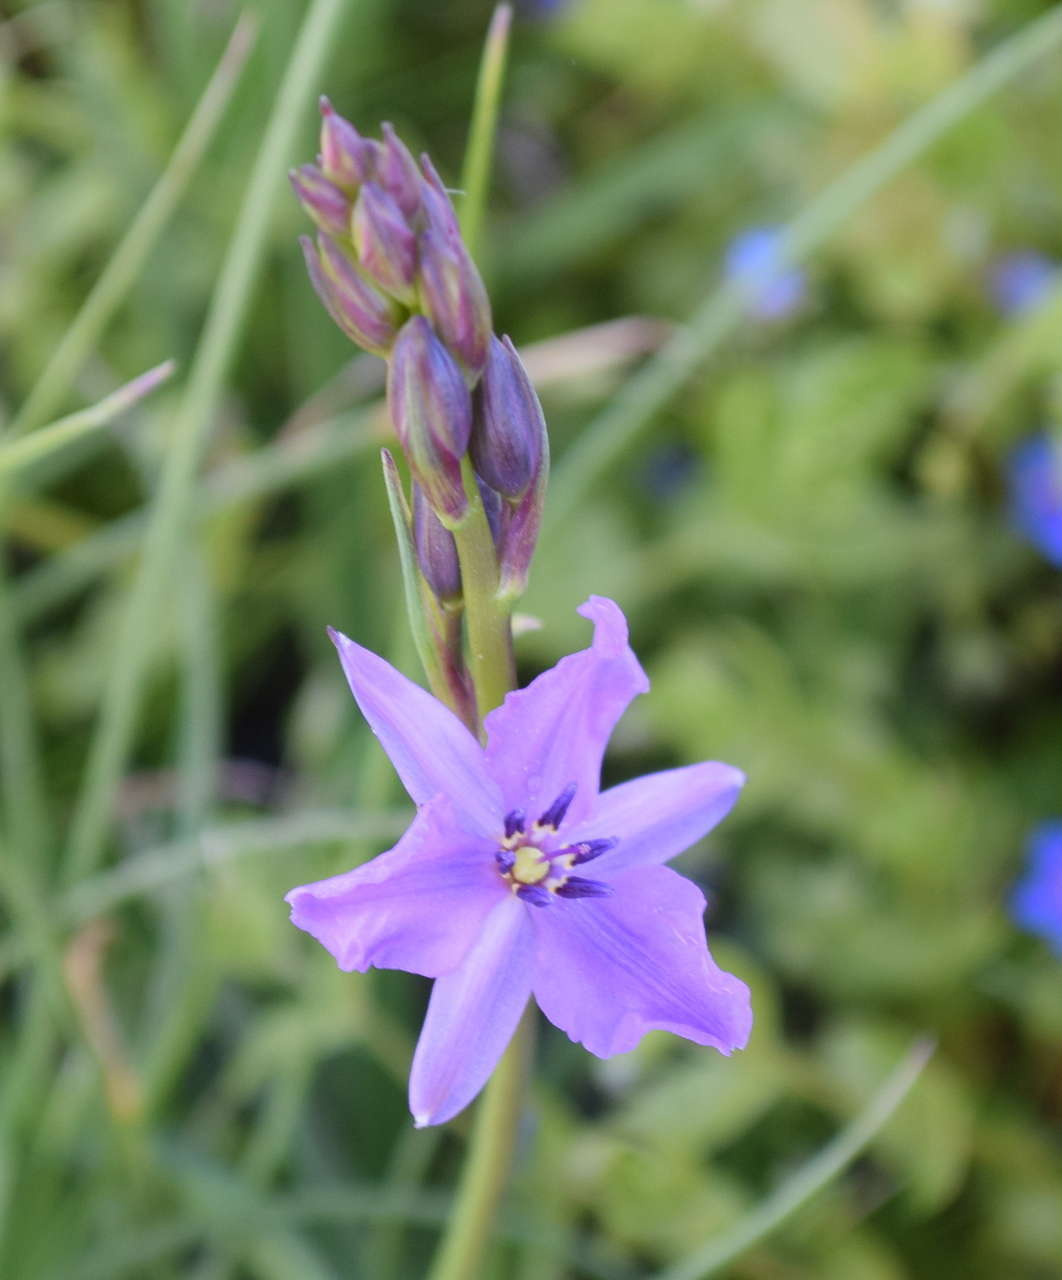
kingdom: Plantae
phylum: Tracheophyta
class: Liliopsida
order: Asparagales
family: Asparagaceae
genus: Arthropodium
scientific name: Arthropodium strictum
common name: Chocolate-lily
